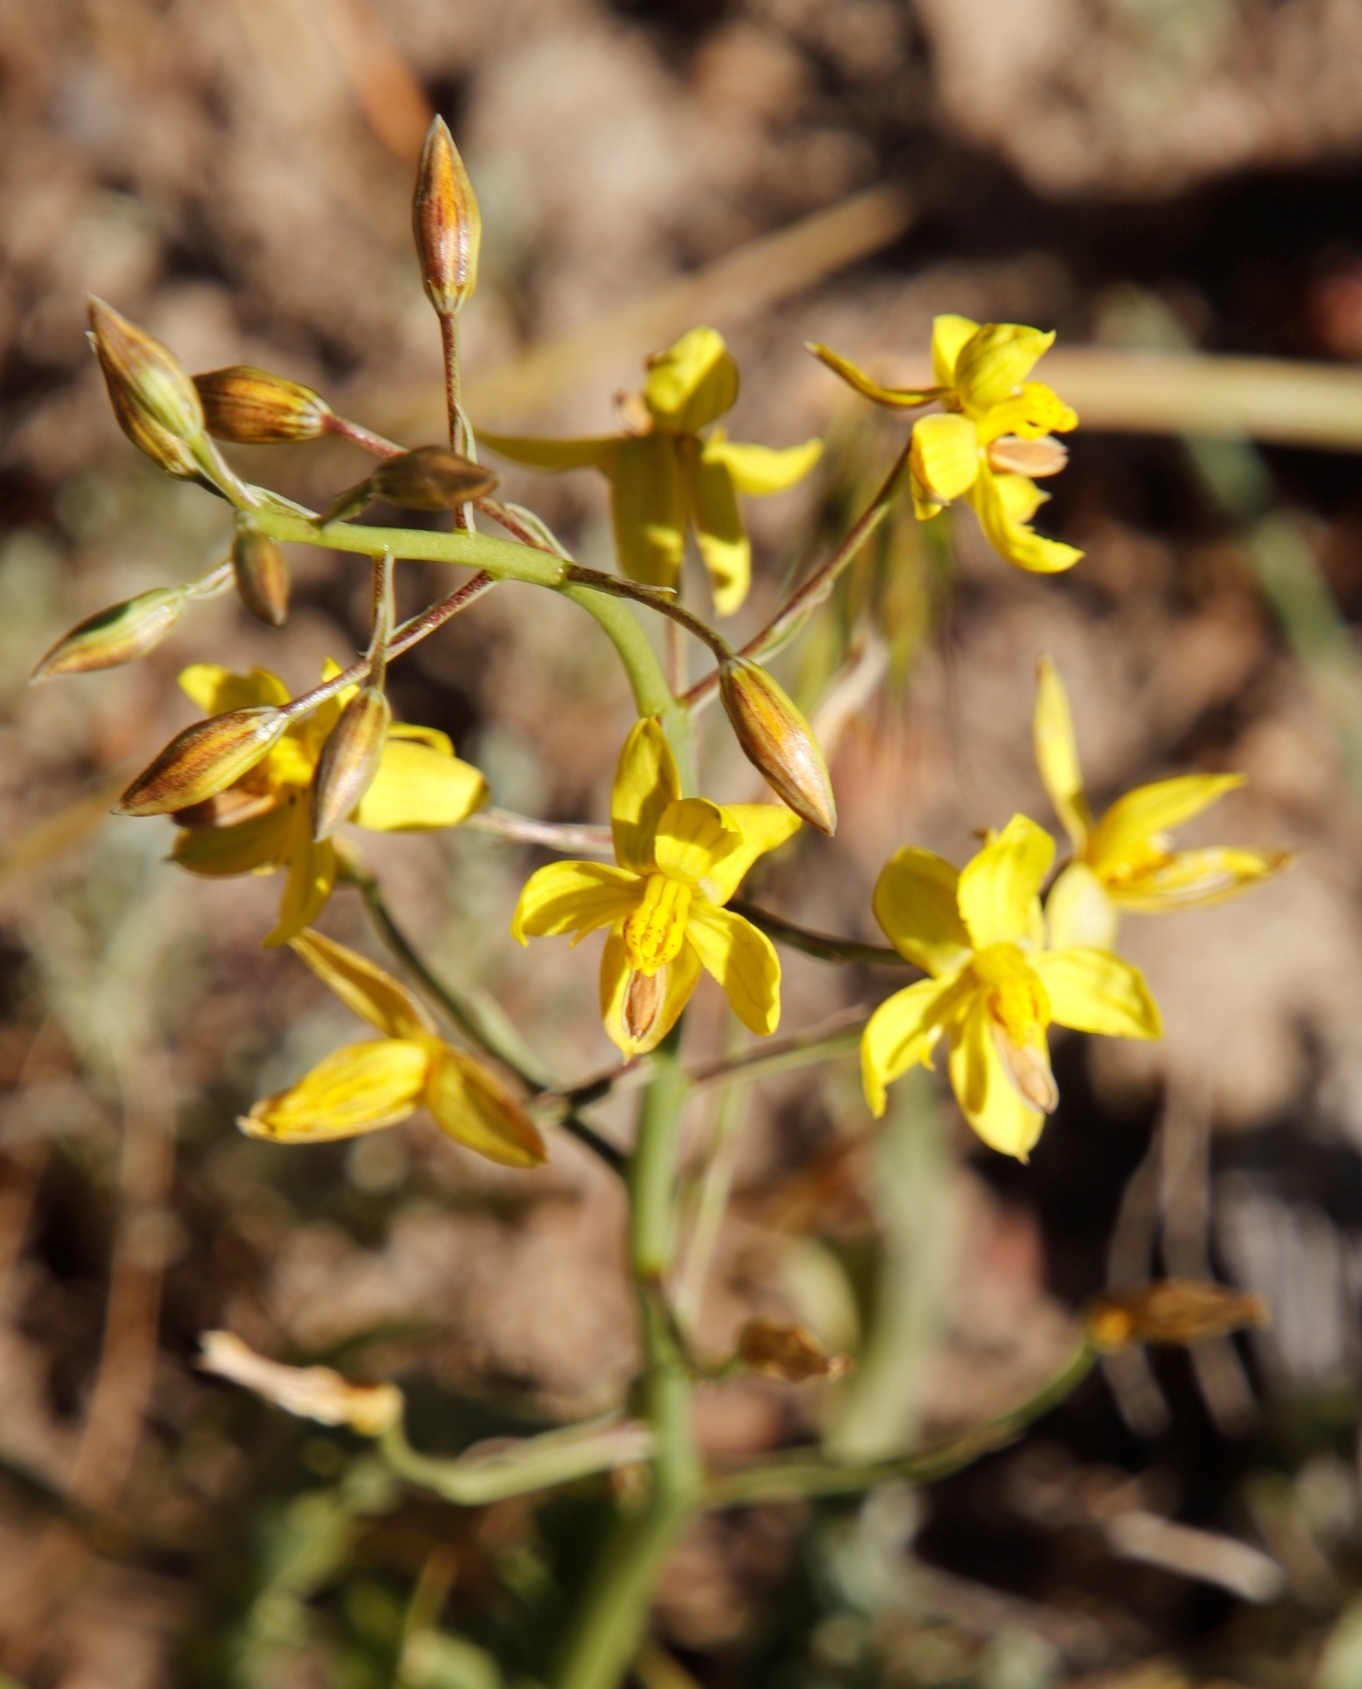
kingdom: Plantae
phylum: Tracheophyta
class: Liliopsida
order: Asparagales
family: Tecophilaeaceae
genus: Cyanella
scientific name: Cyanella lutea
